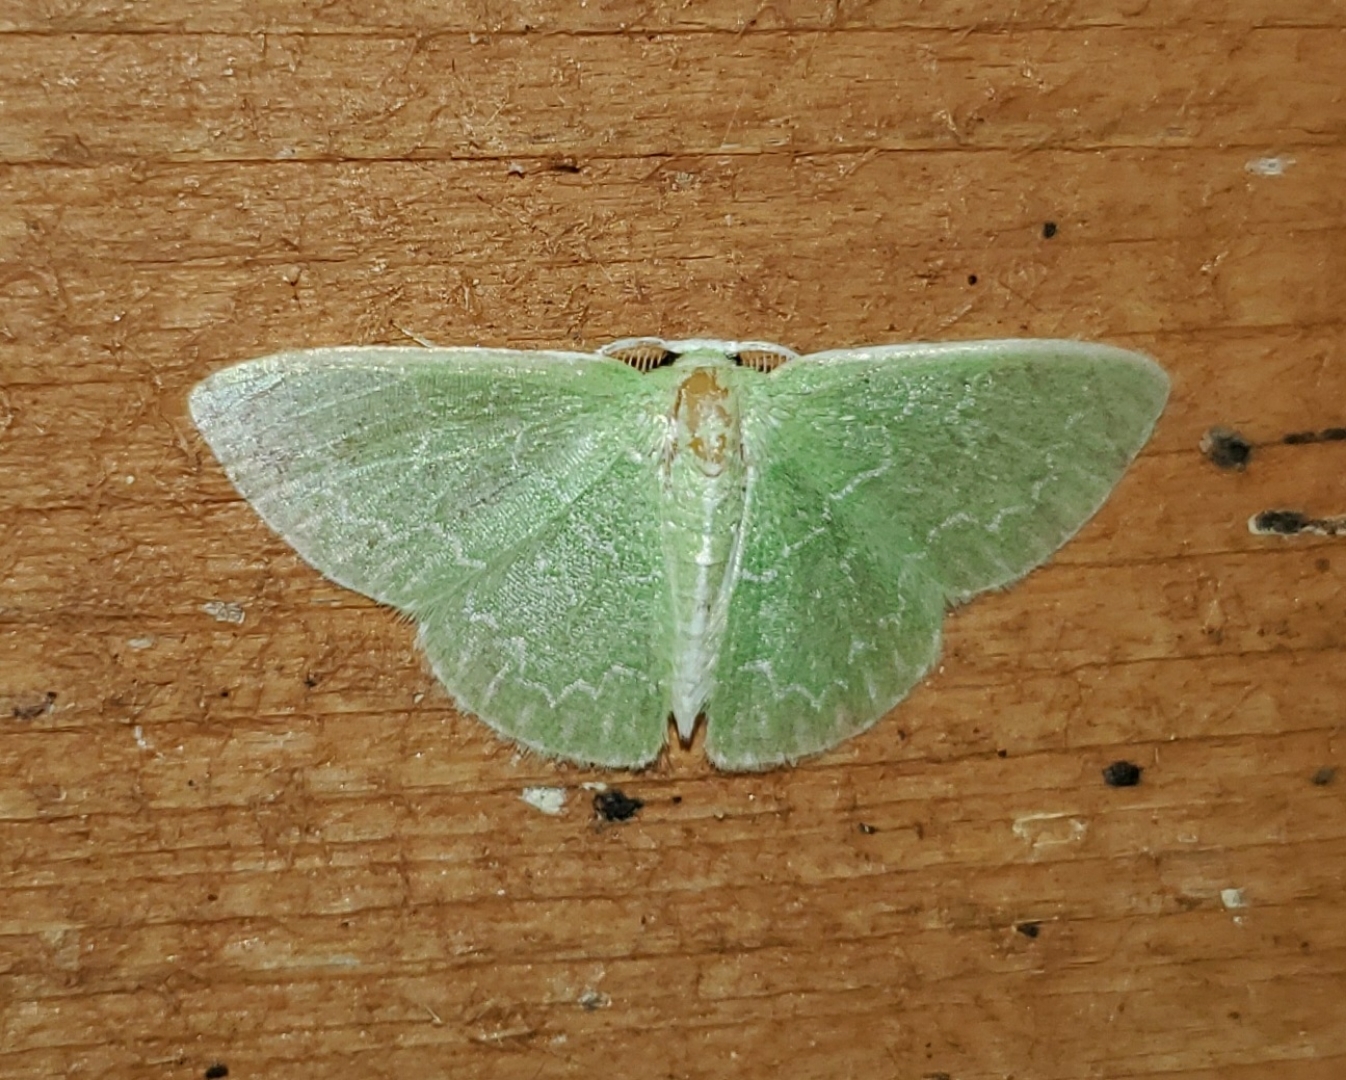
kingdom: Animalia
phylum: Arthropoda
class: Insecta
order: Lepidoptera
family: Geometridae
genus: Synchlora
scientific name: Synchlora frondaria
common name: Southern emerald
